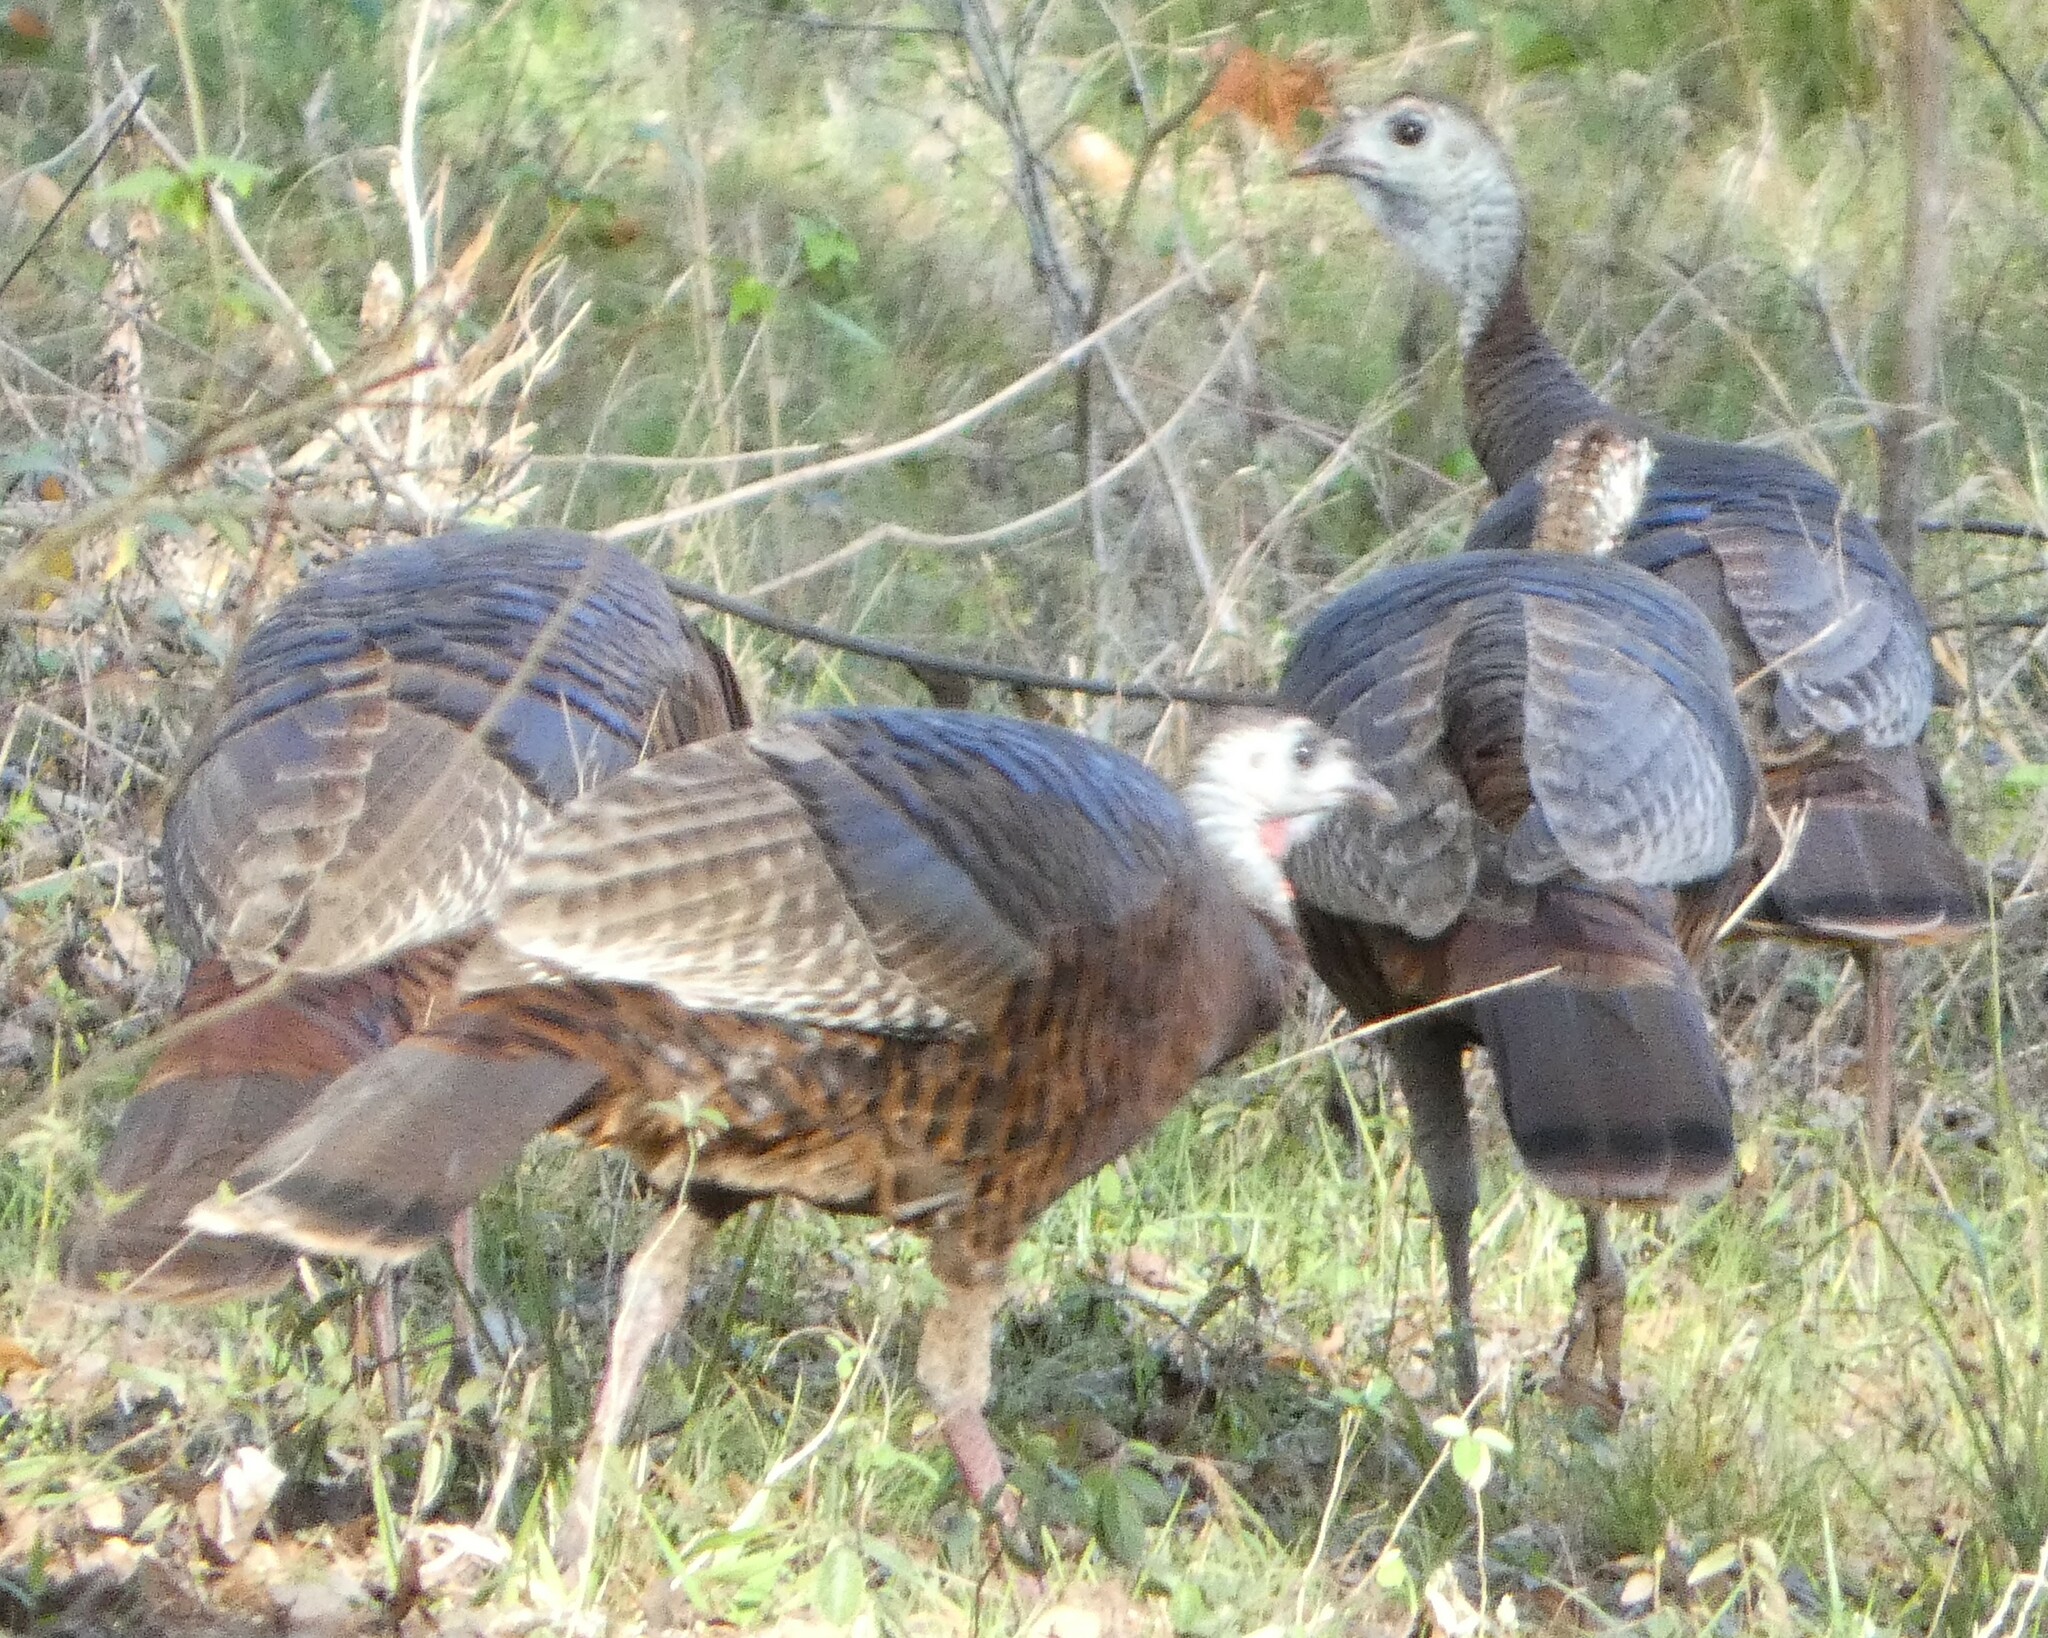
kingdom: Animalia
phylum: Chordata
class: Aves
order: Galliformes
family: Phasianidae
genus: Meleagris
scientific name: Meleagris gallopavo
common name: Wild turkey
